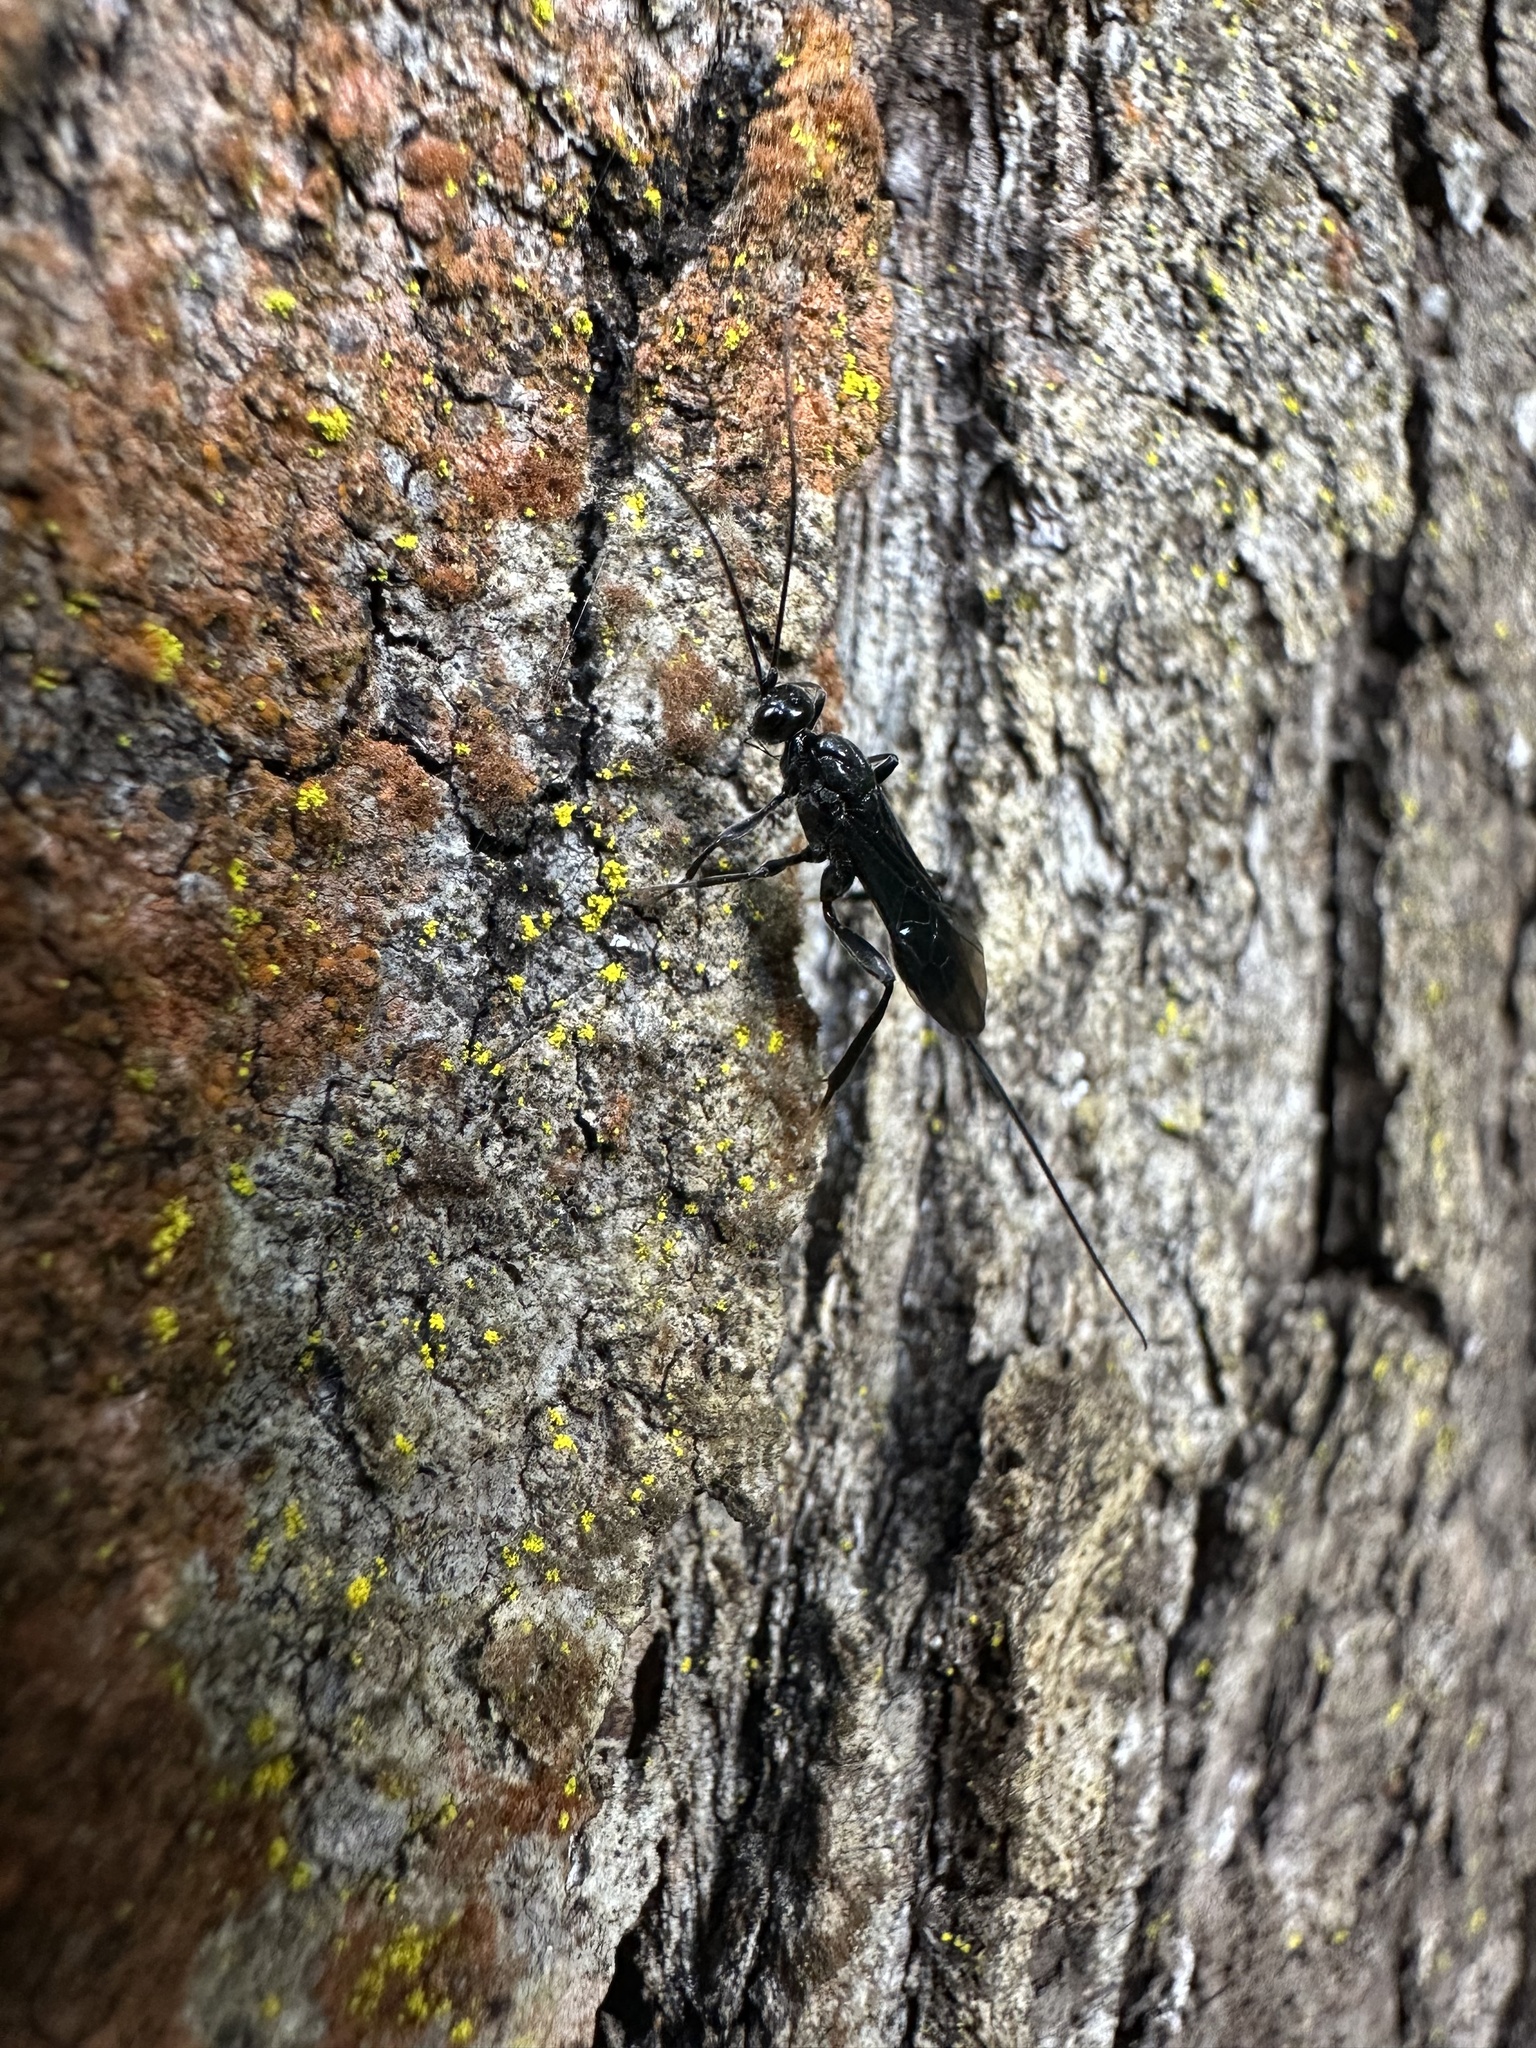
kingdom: Animalia
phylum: Arthropoda
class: Insecta
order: Hymenoptera
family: Ichneumonidae
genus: Dotocryptus
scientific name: Dotocryptus bellicosus
